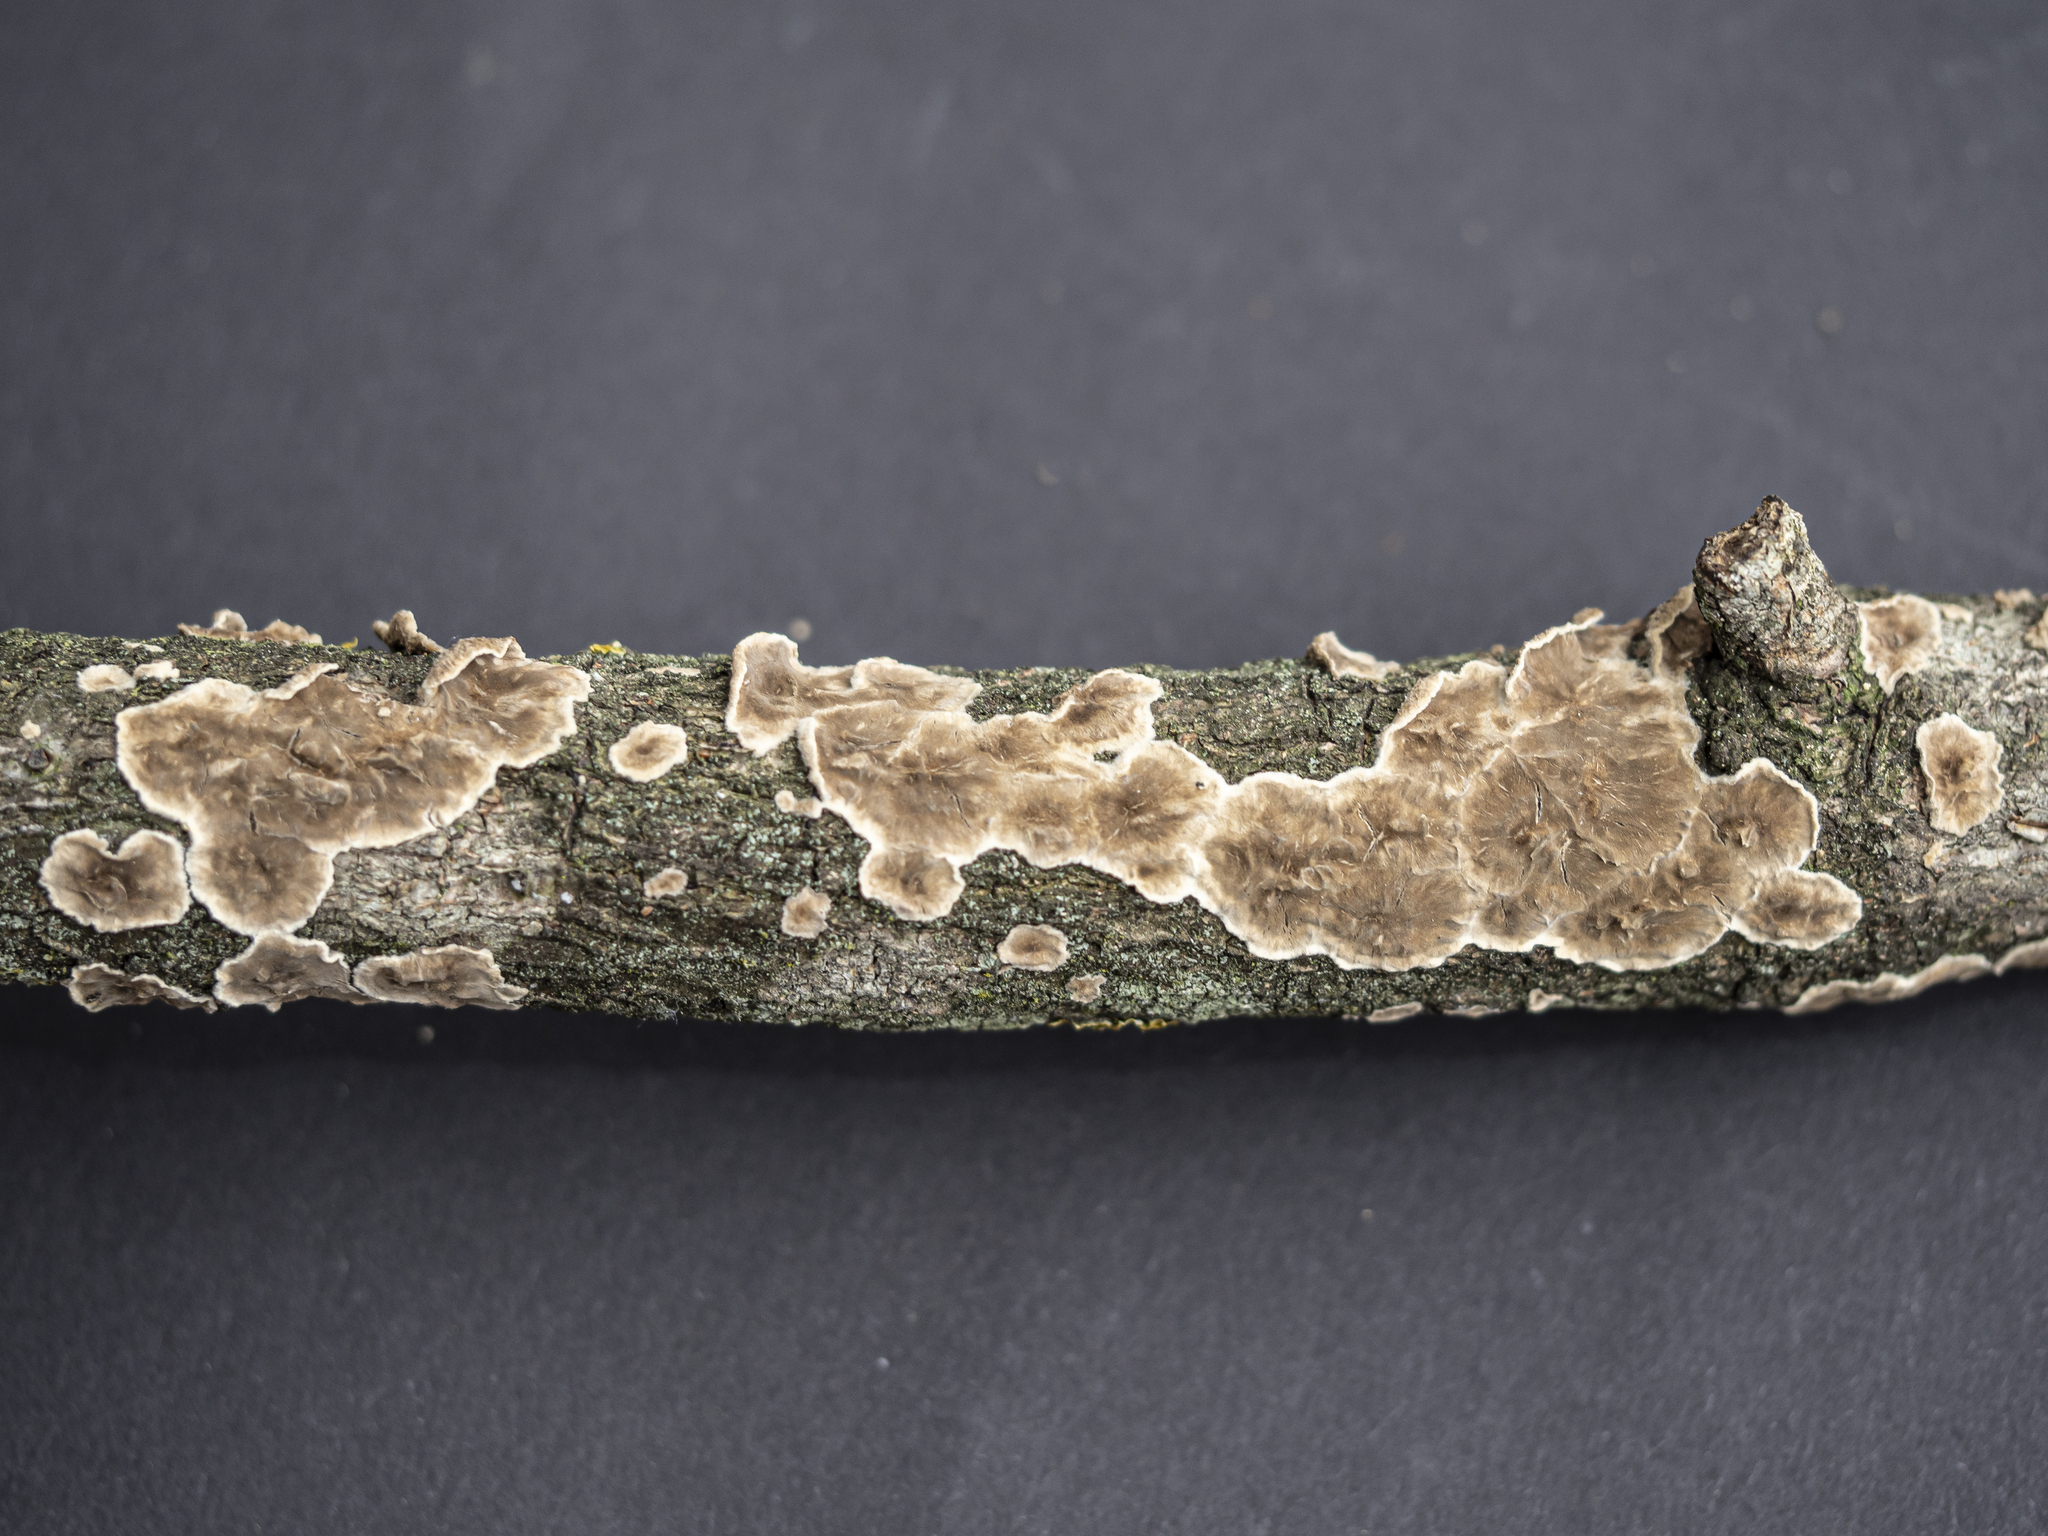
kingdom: Fungi
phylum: Basidiomycota
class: Agaricomycetes
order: Polyporales
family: Phanerochaetaceae
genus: Porostereum
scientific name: Porostereum spadiceum
